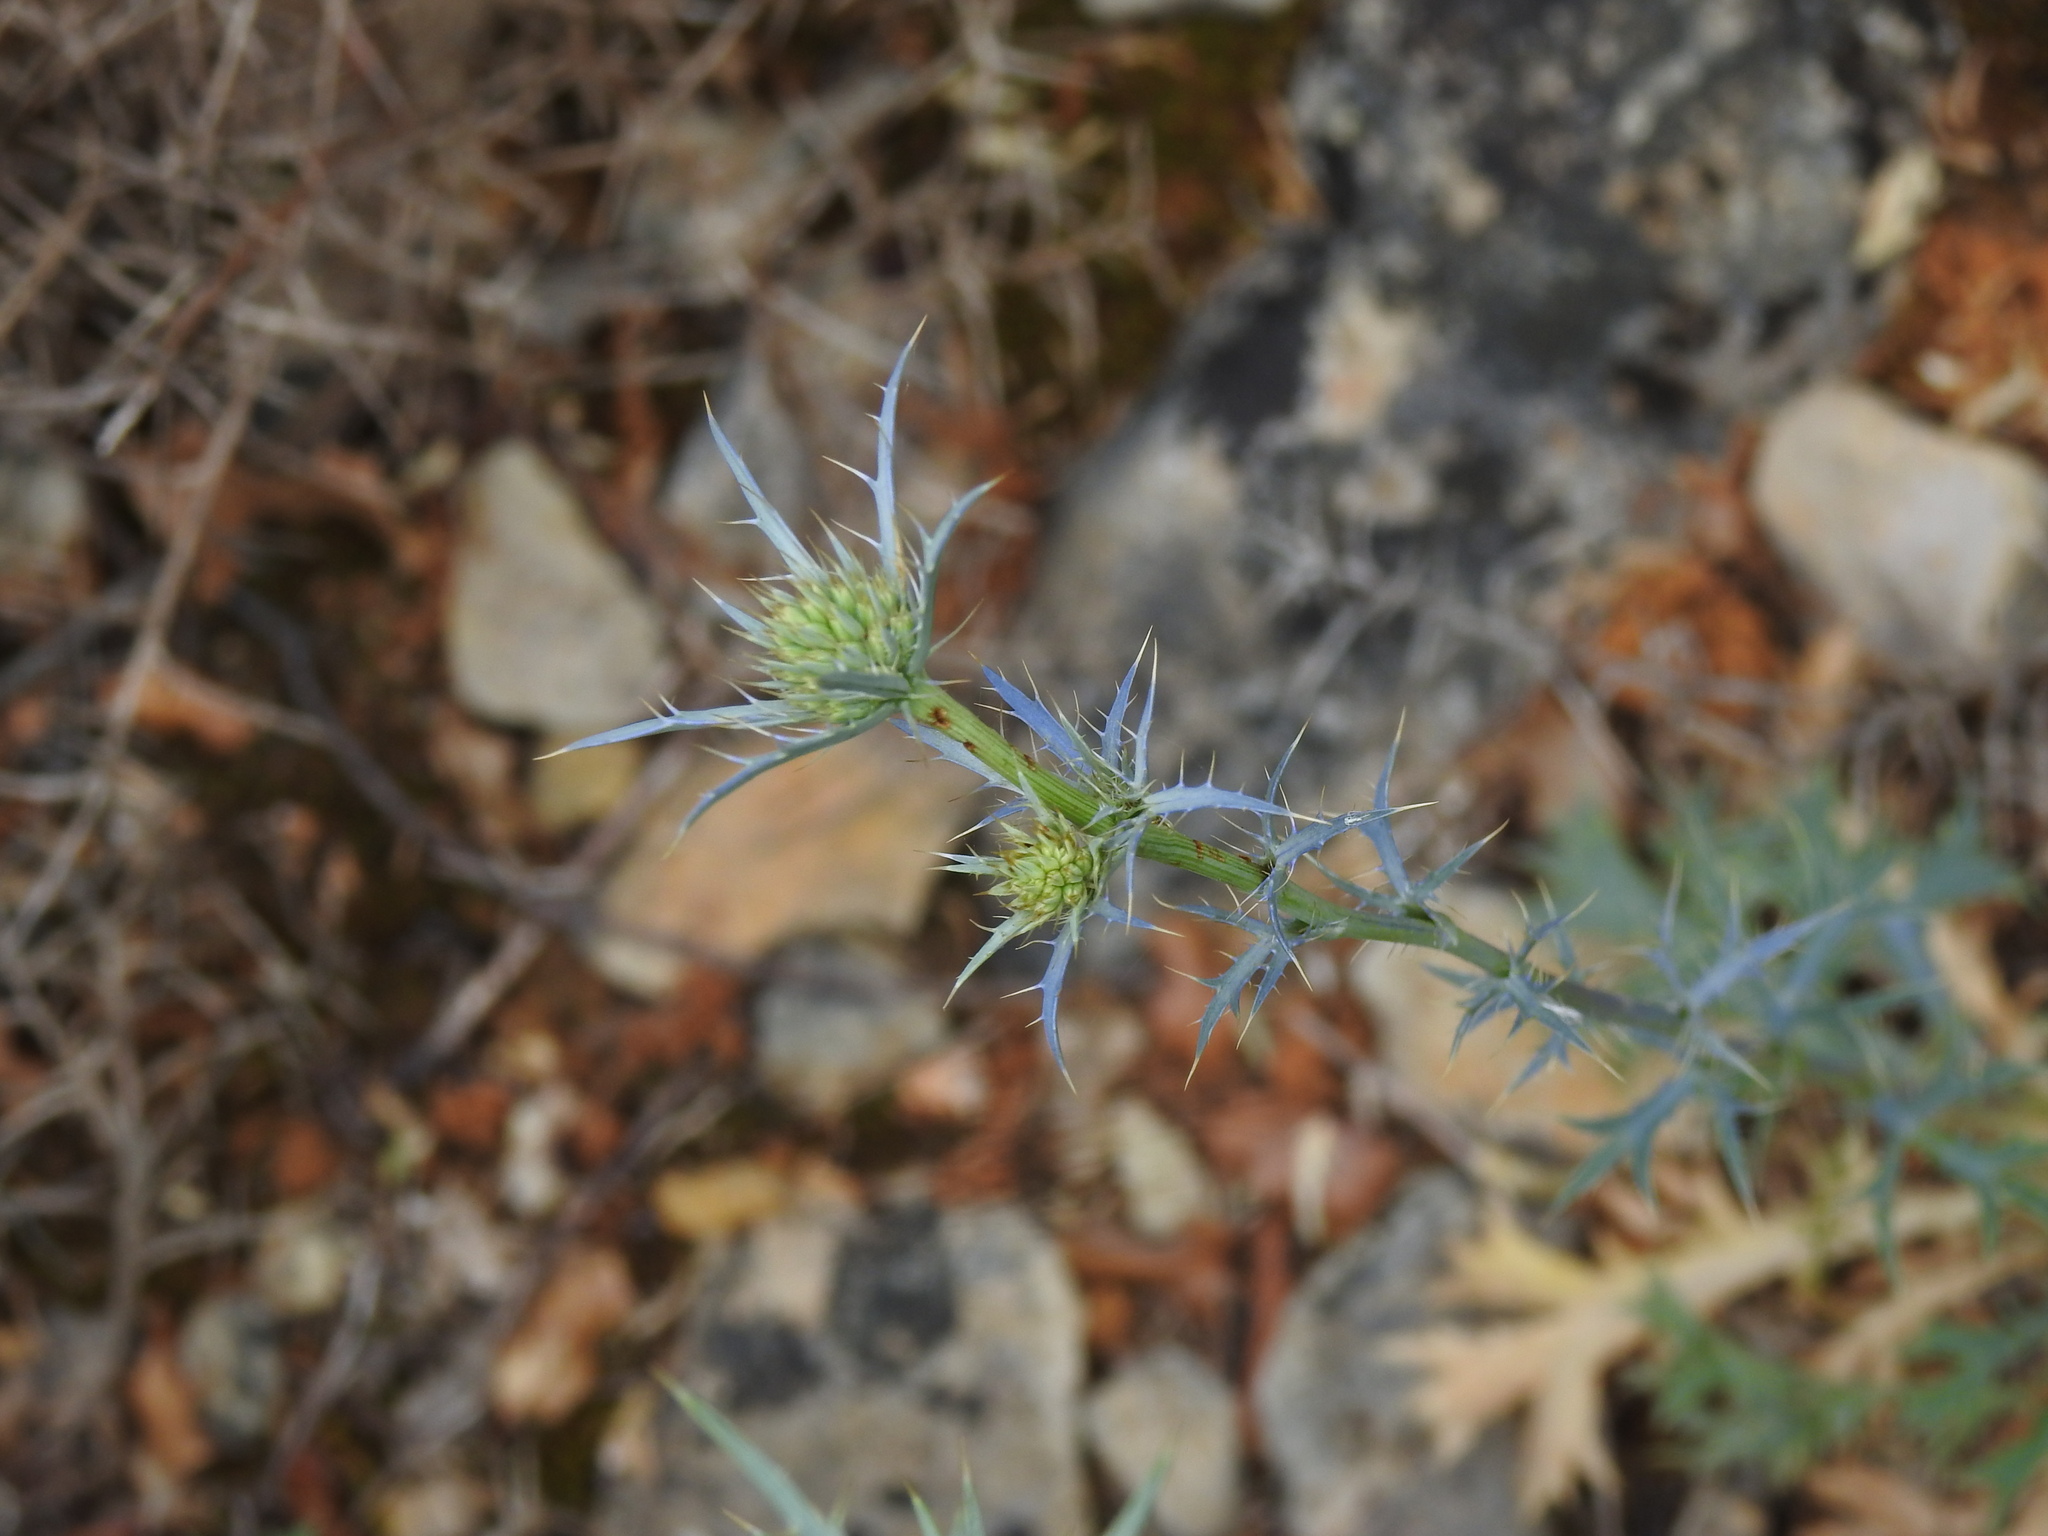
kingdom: Plantae
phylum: Tracheophyta
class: Magnoliopsida
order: Apiales
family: Apiaceae
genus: Eryngium
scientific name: Eryngium dilatatum
